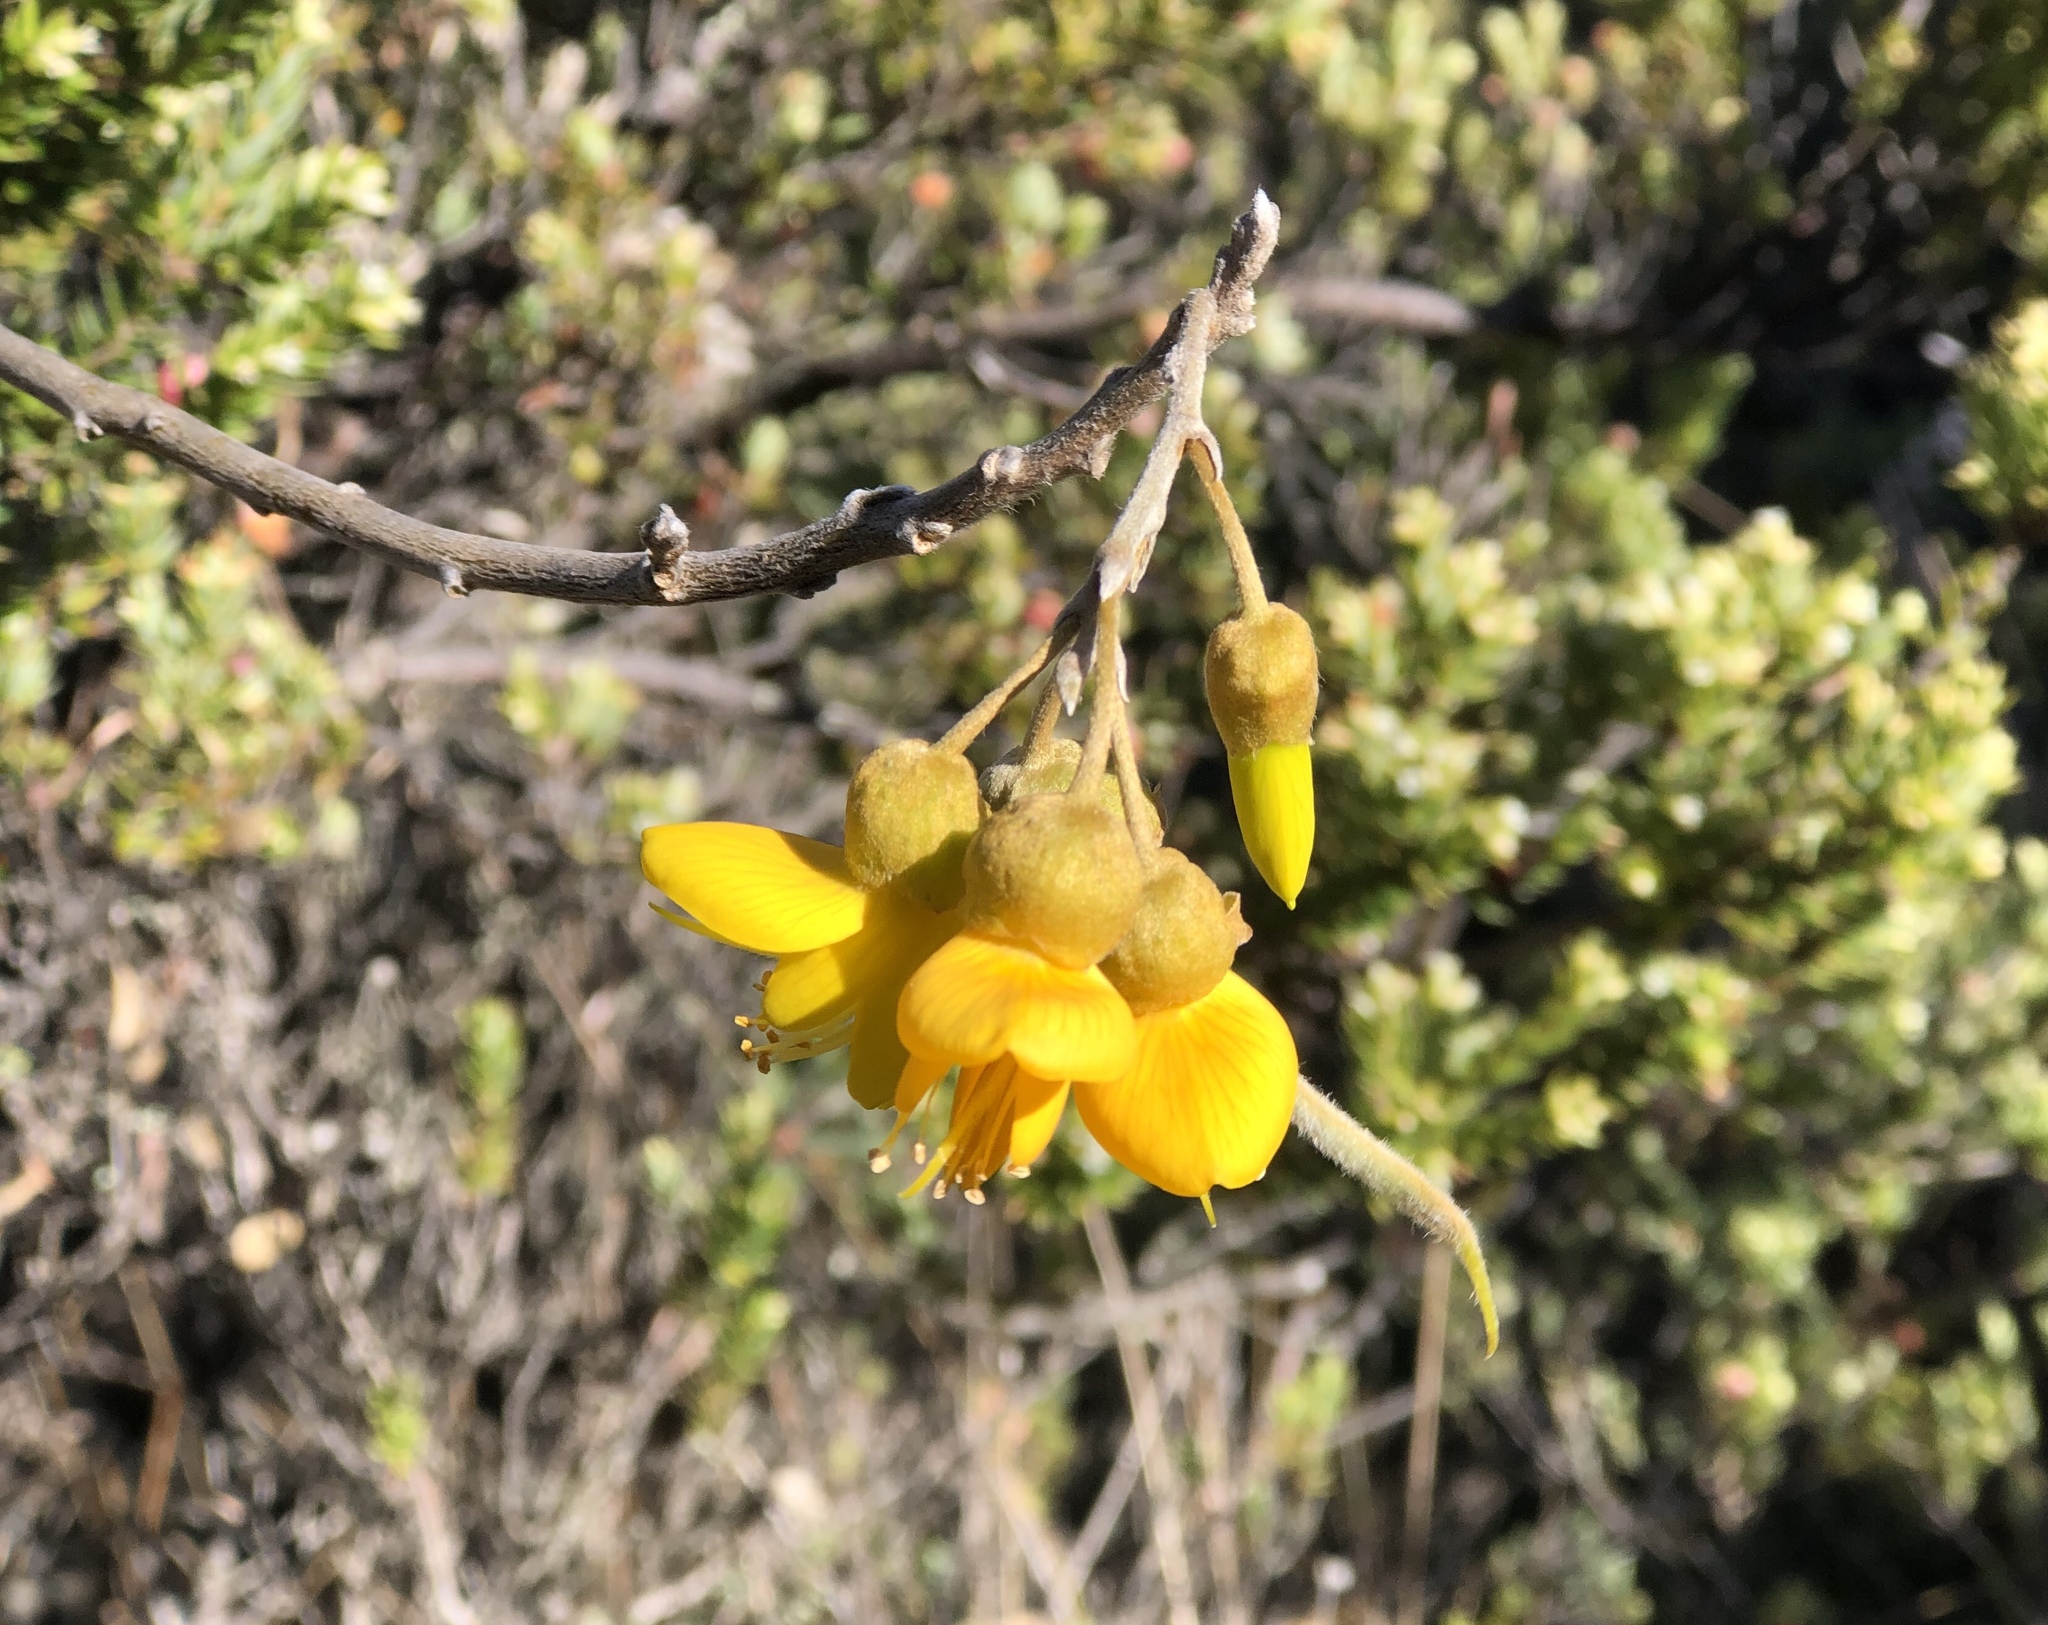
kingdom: Plantae
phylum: Tracheophyta
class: Magnoliopsida
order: Fabales
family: Fabaceae
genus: Sophora
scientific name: Sophora chrysophylla
